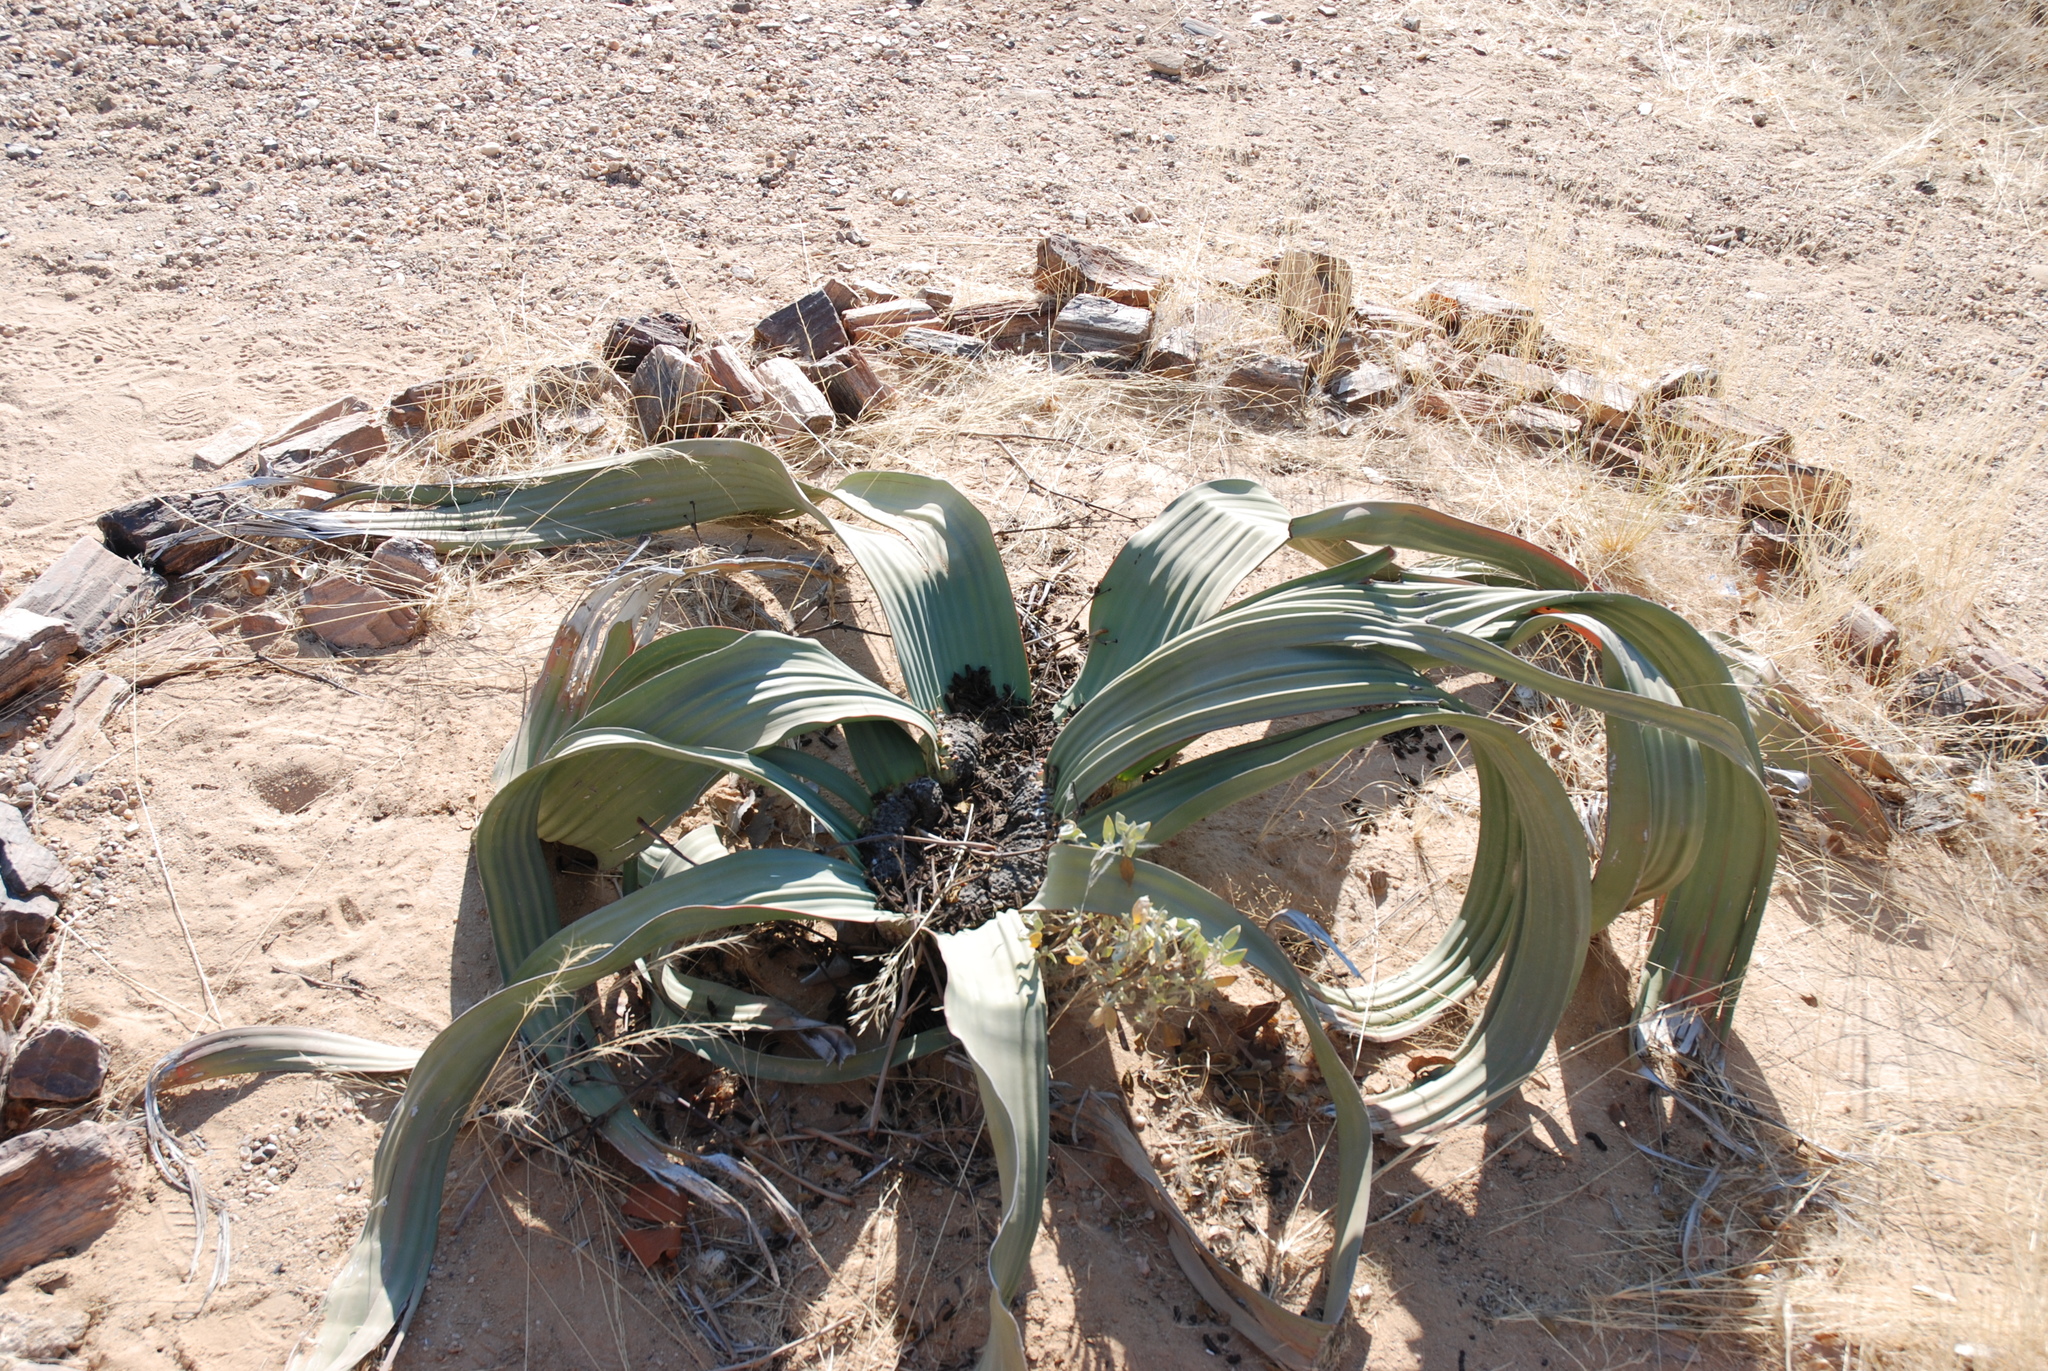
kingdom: Plantae
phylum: Tracheophyta
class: Gnetopsida
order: Welwitschiales
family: Welwitschiaceae
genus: Welwitschia
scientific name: Welwitschia mirabilis
